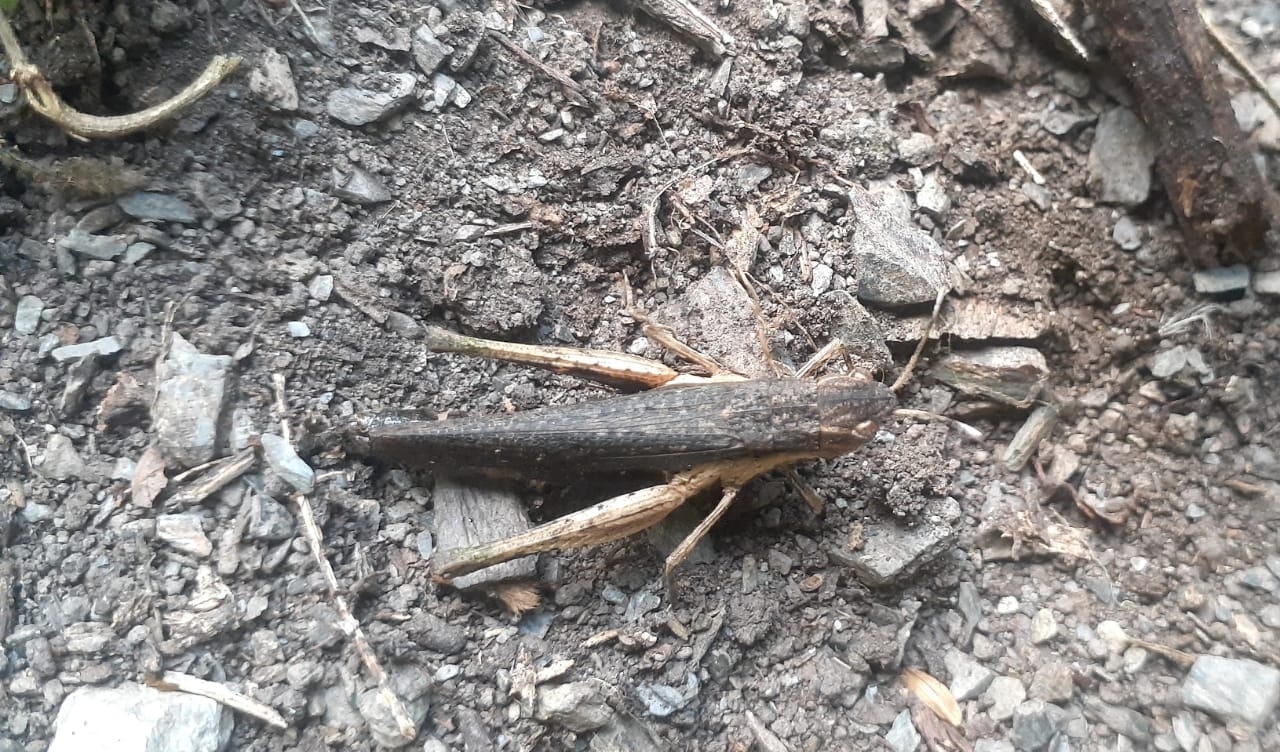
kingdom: Animalia
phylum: Arthropoda
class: Insecta
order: Orthoptera
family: Acrididae
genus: Peruvia
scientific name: Peruvia nigromarginata
